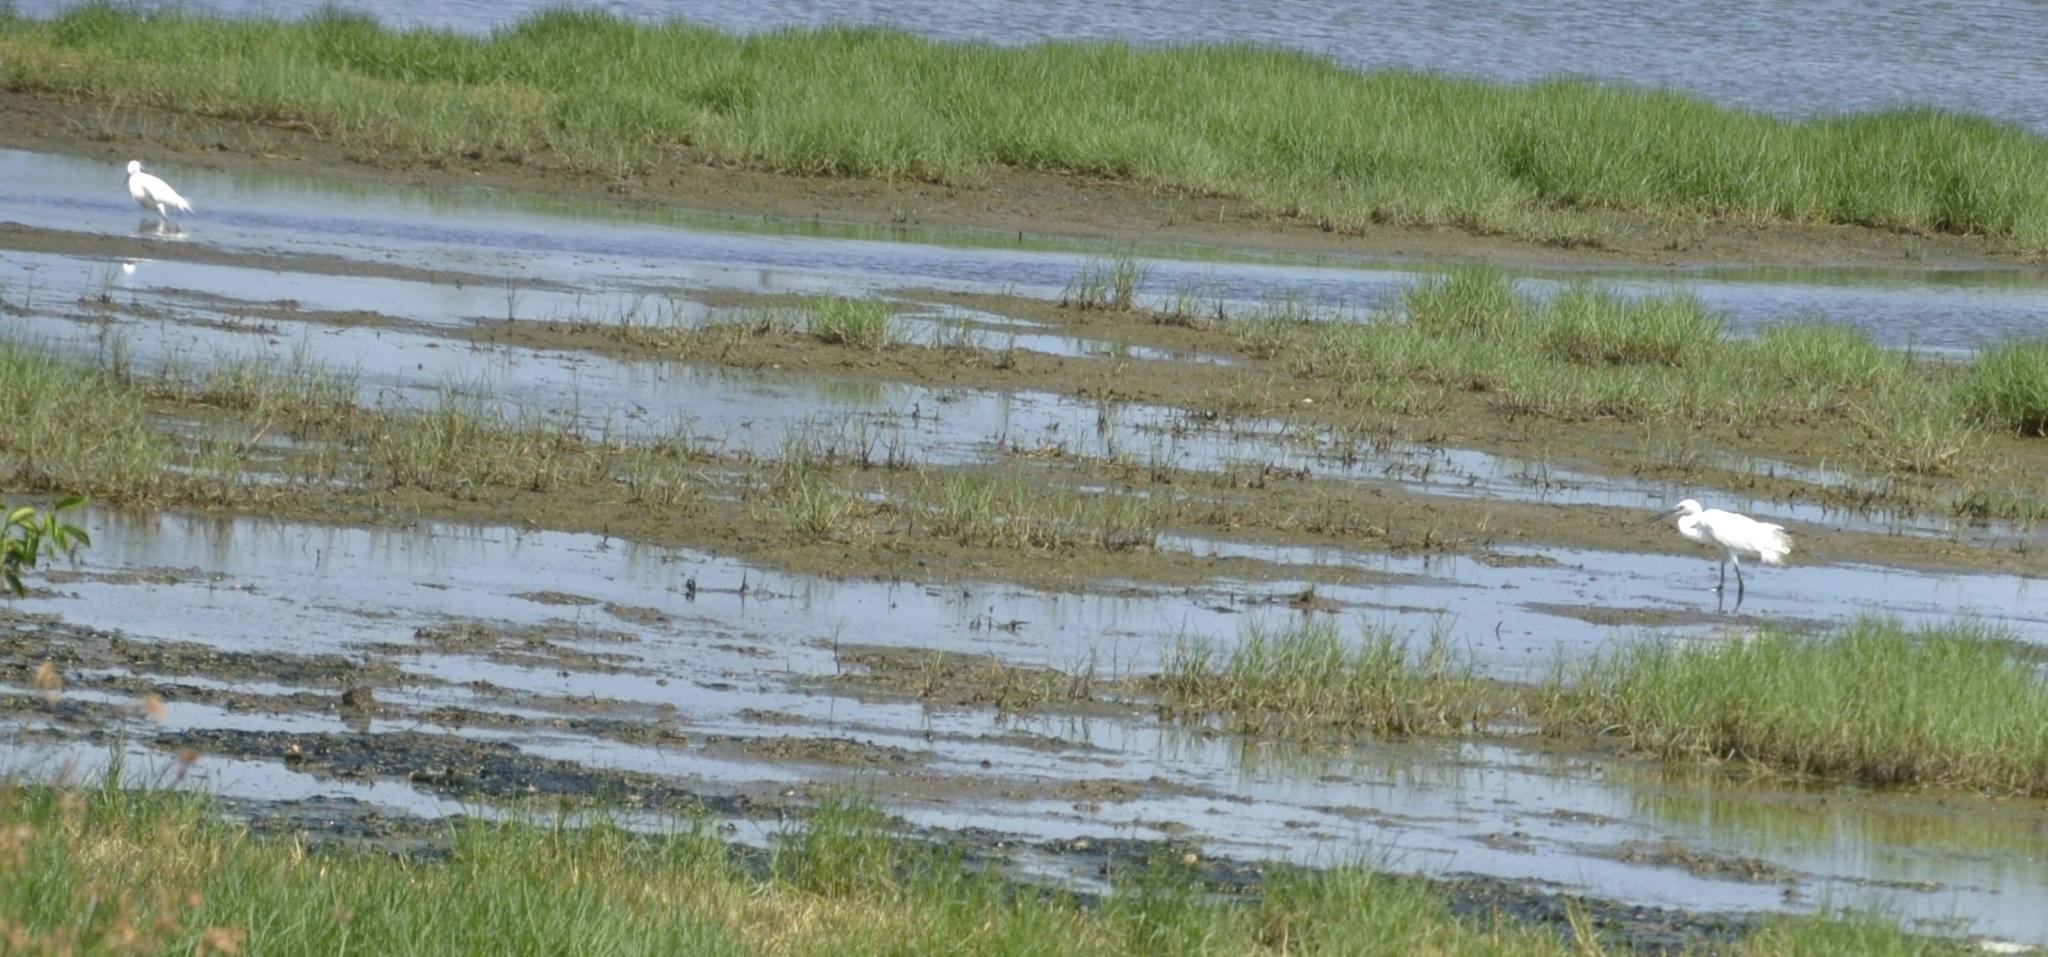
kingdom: Animalia
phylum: Chordata
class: Aves
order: Pelecaniformes
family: Ardeidae
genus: Egretta
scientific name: Egretta garzetta
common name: Little egret
